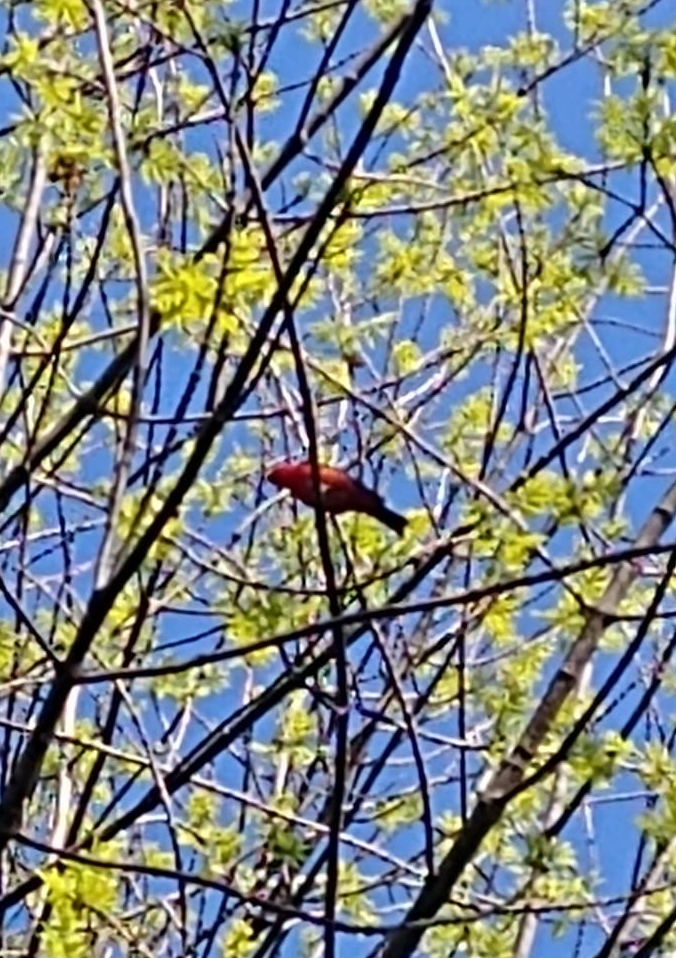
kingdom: Animalia
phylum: Chordata
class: Aves
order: Passeriformes
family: Cardinalidae
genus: Piranga
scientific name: Piranga olivacea
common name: Scarlet tanager
